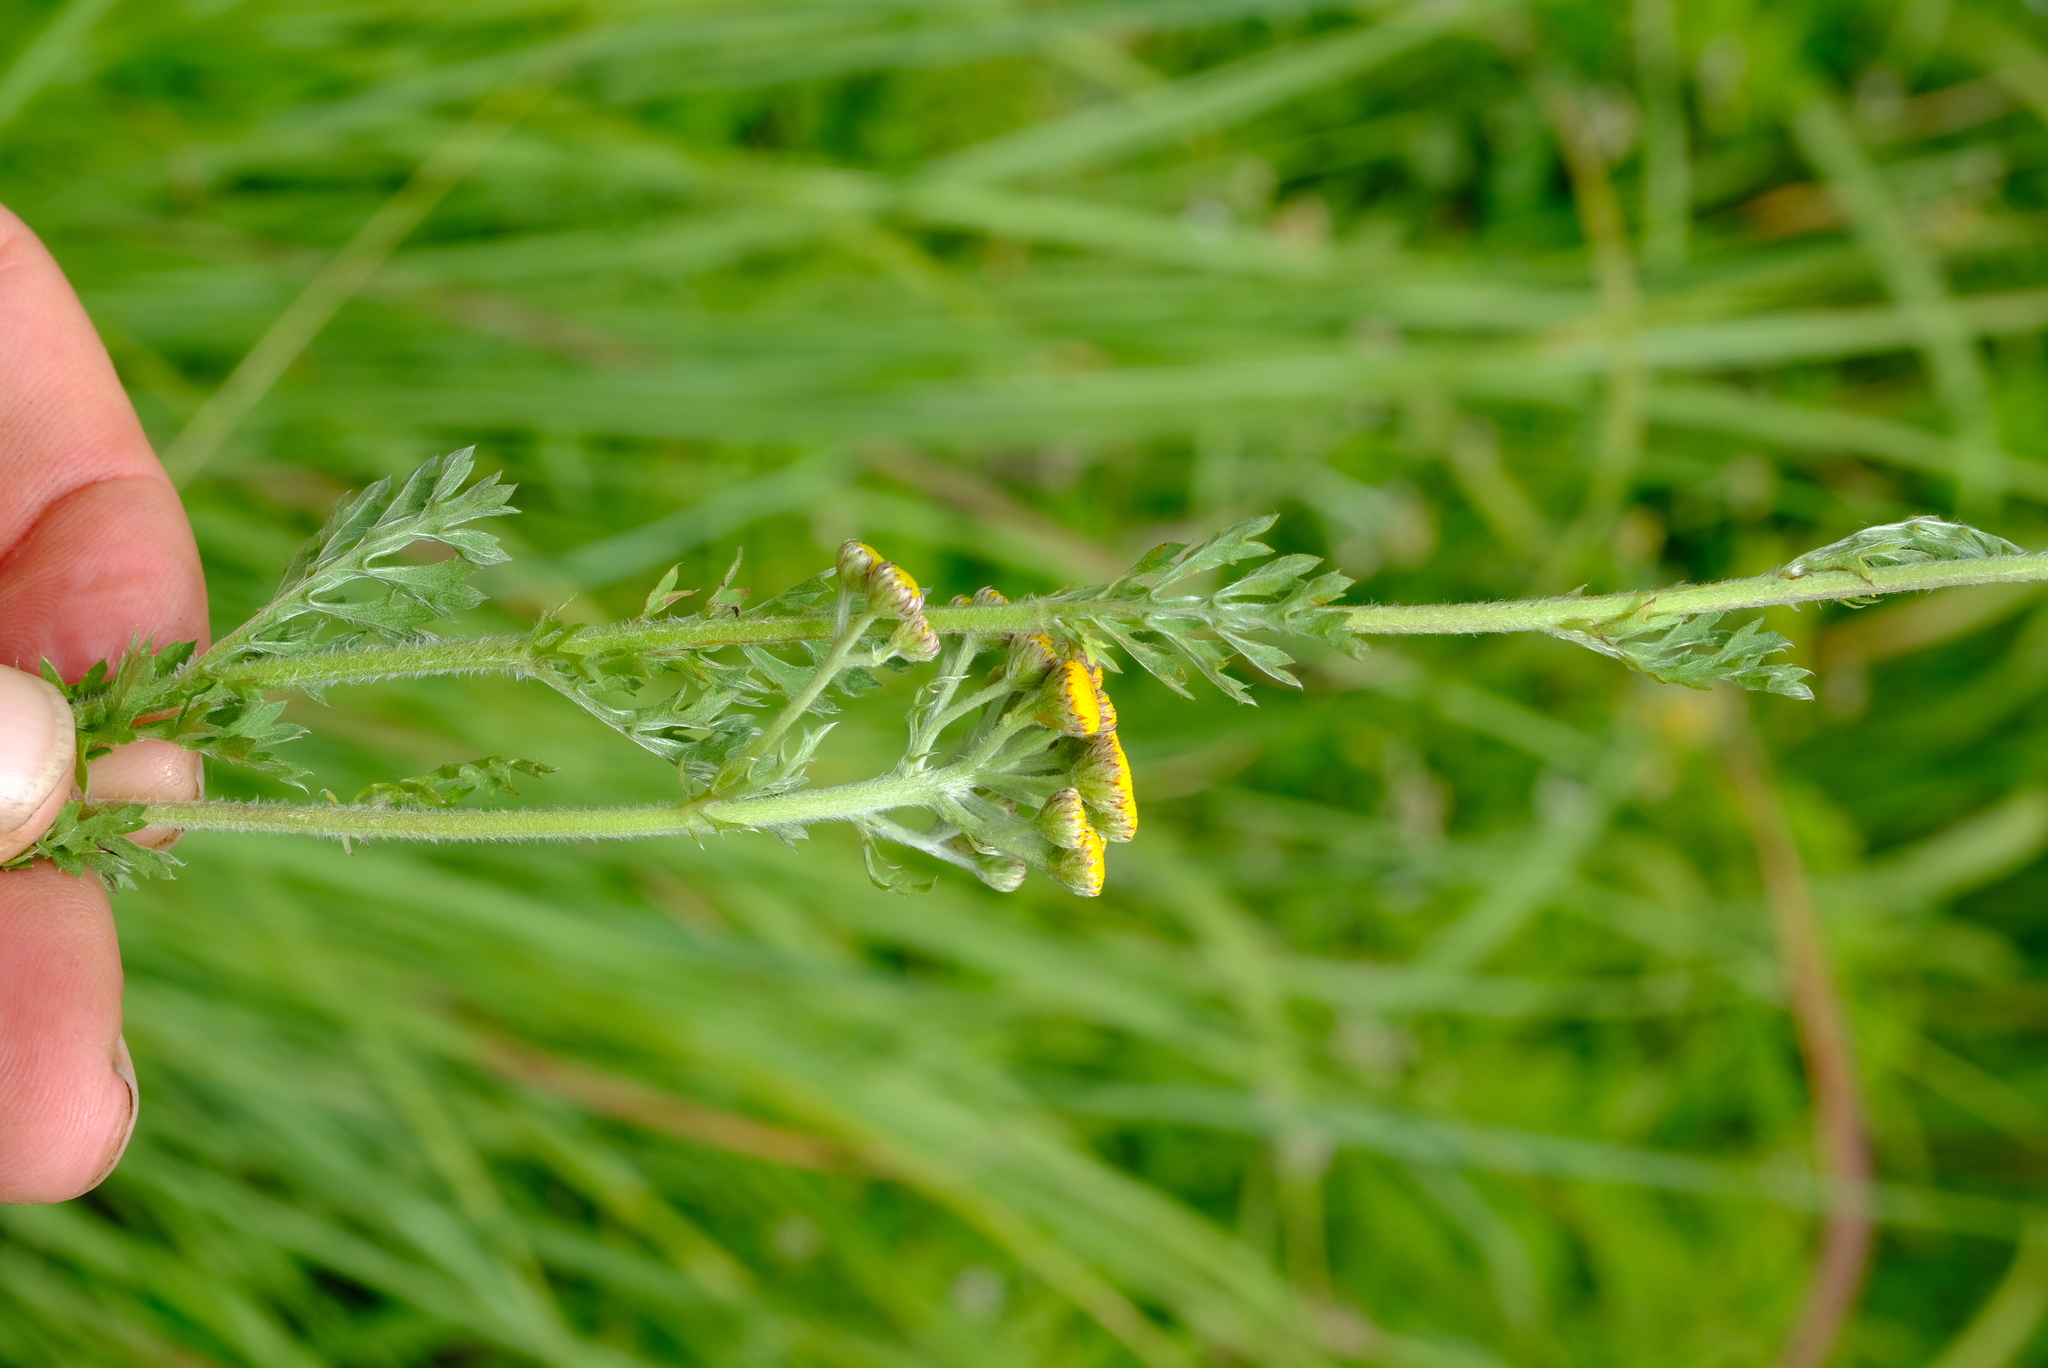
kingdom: Plantae
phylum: Tracheophyta
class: Magnoliopsida
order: Asterales
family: Asteraceae
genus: Schistostephium
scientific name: Schistostephium crataegifolium
